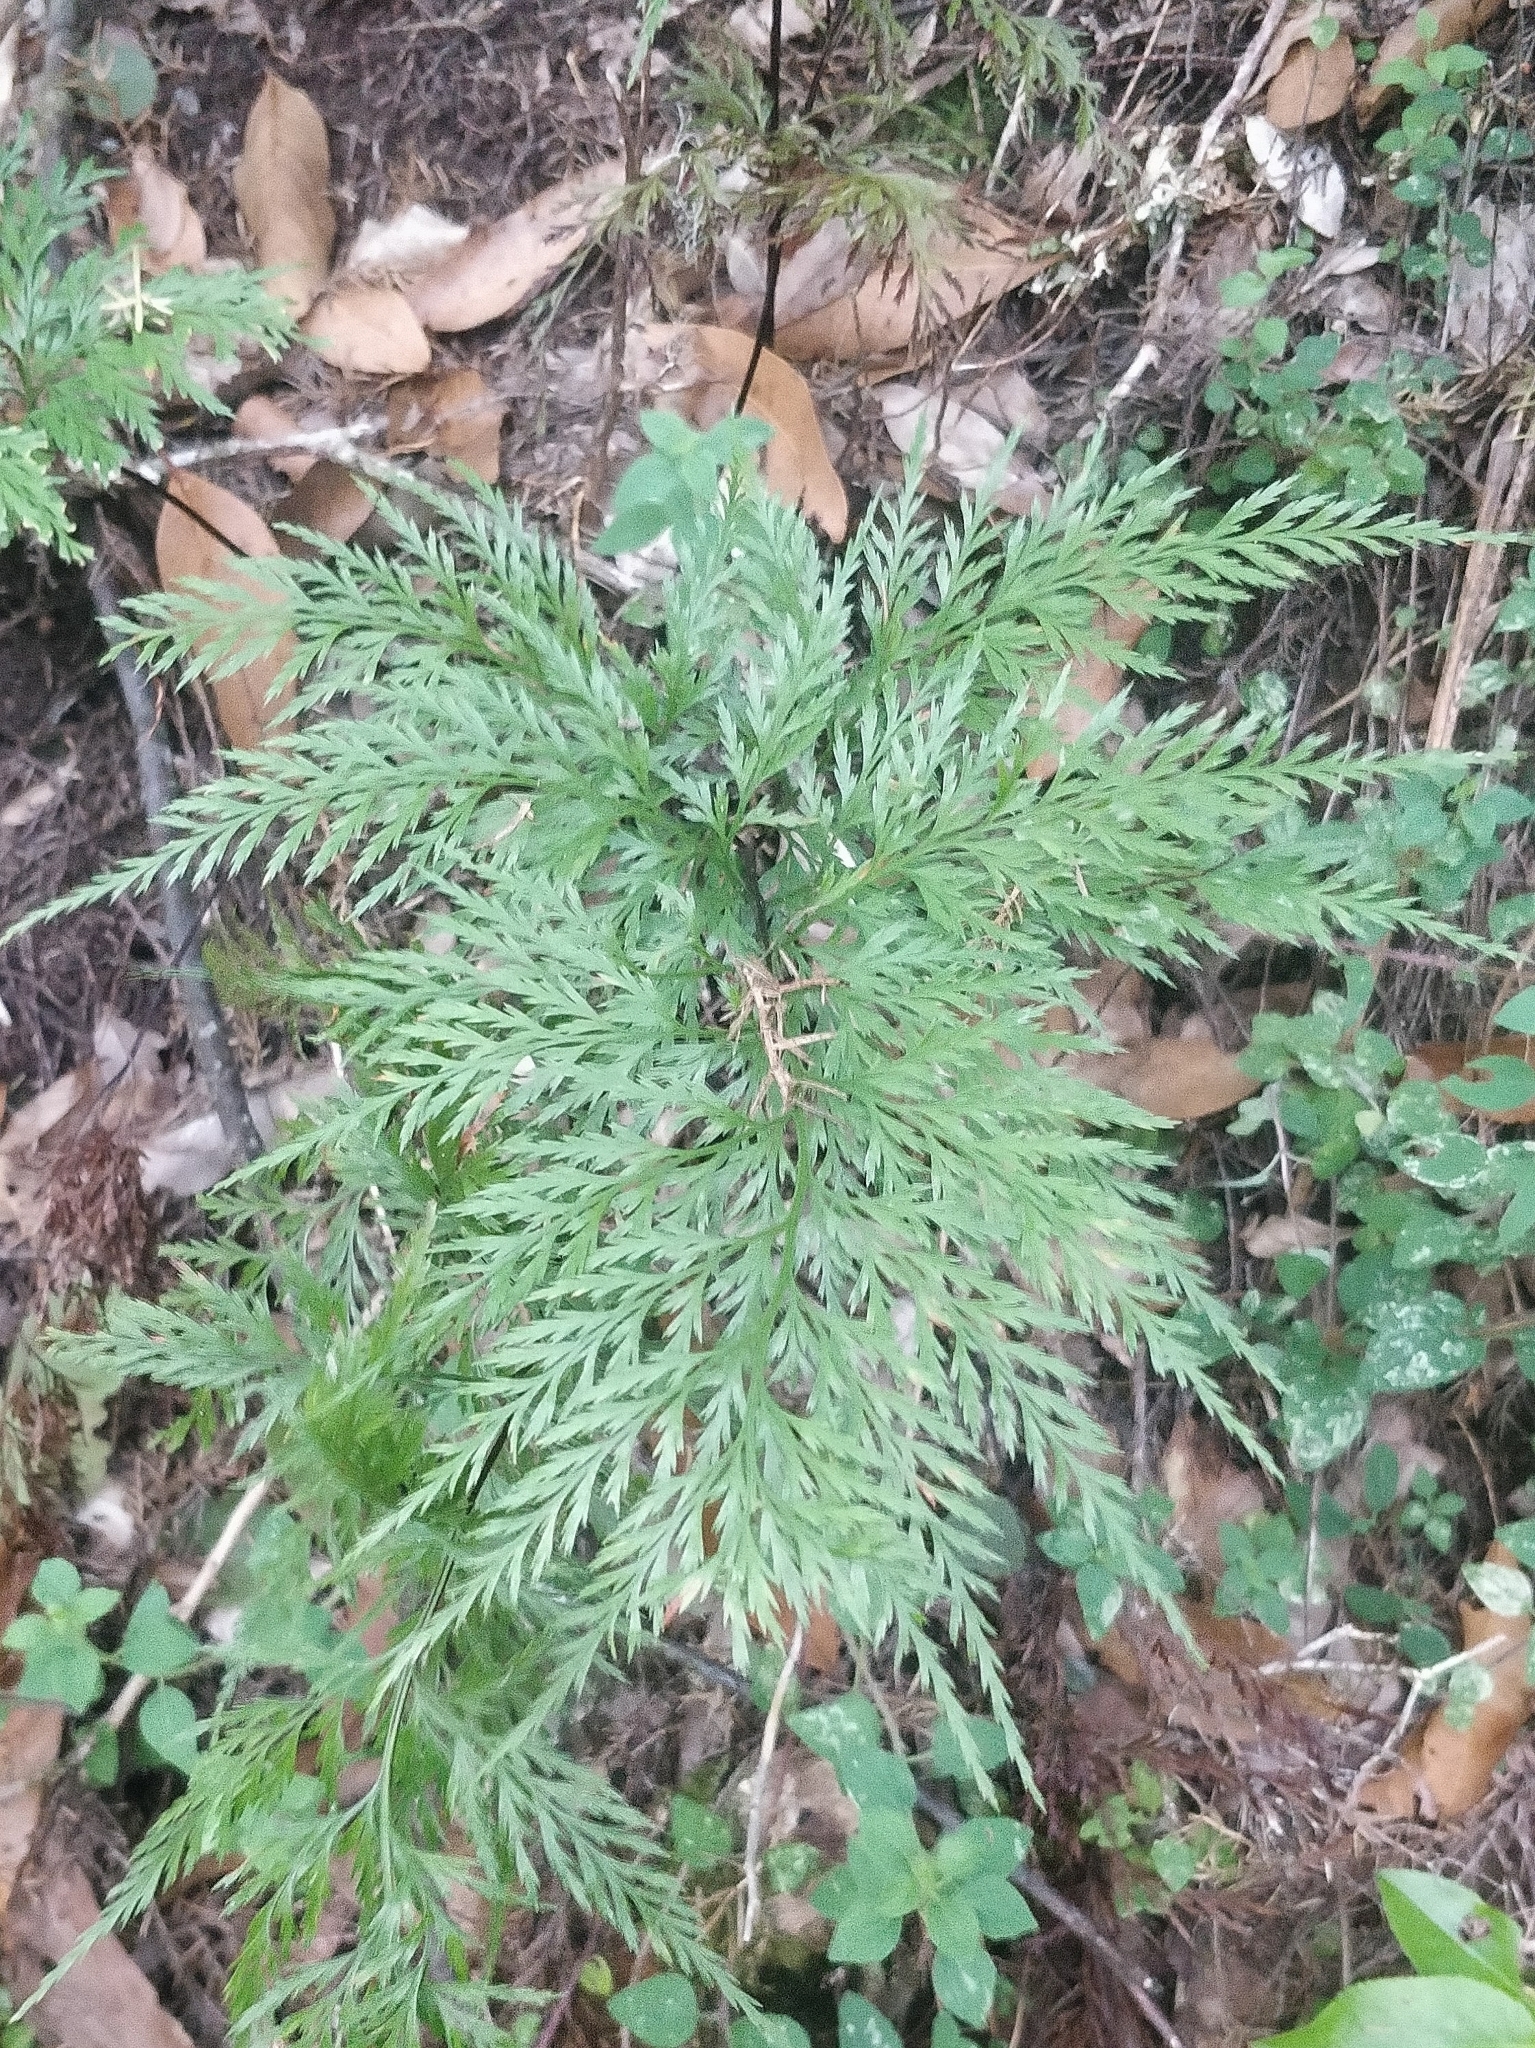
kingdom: Plantae
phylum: Tracheophyta
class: Polypodiopsida
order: Polypodiales
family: Aspleniaceae
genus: Asplenium
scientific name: Asplenium onopteris
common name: Irish spleenwort
